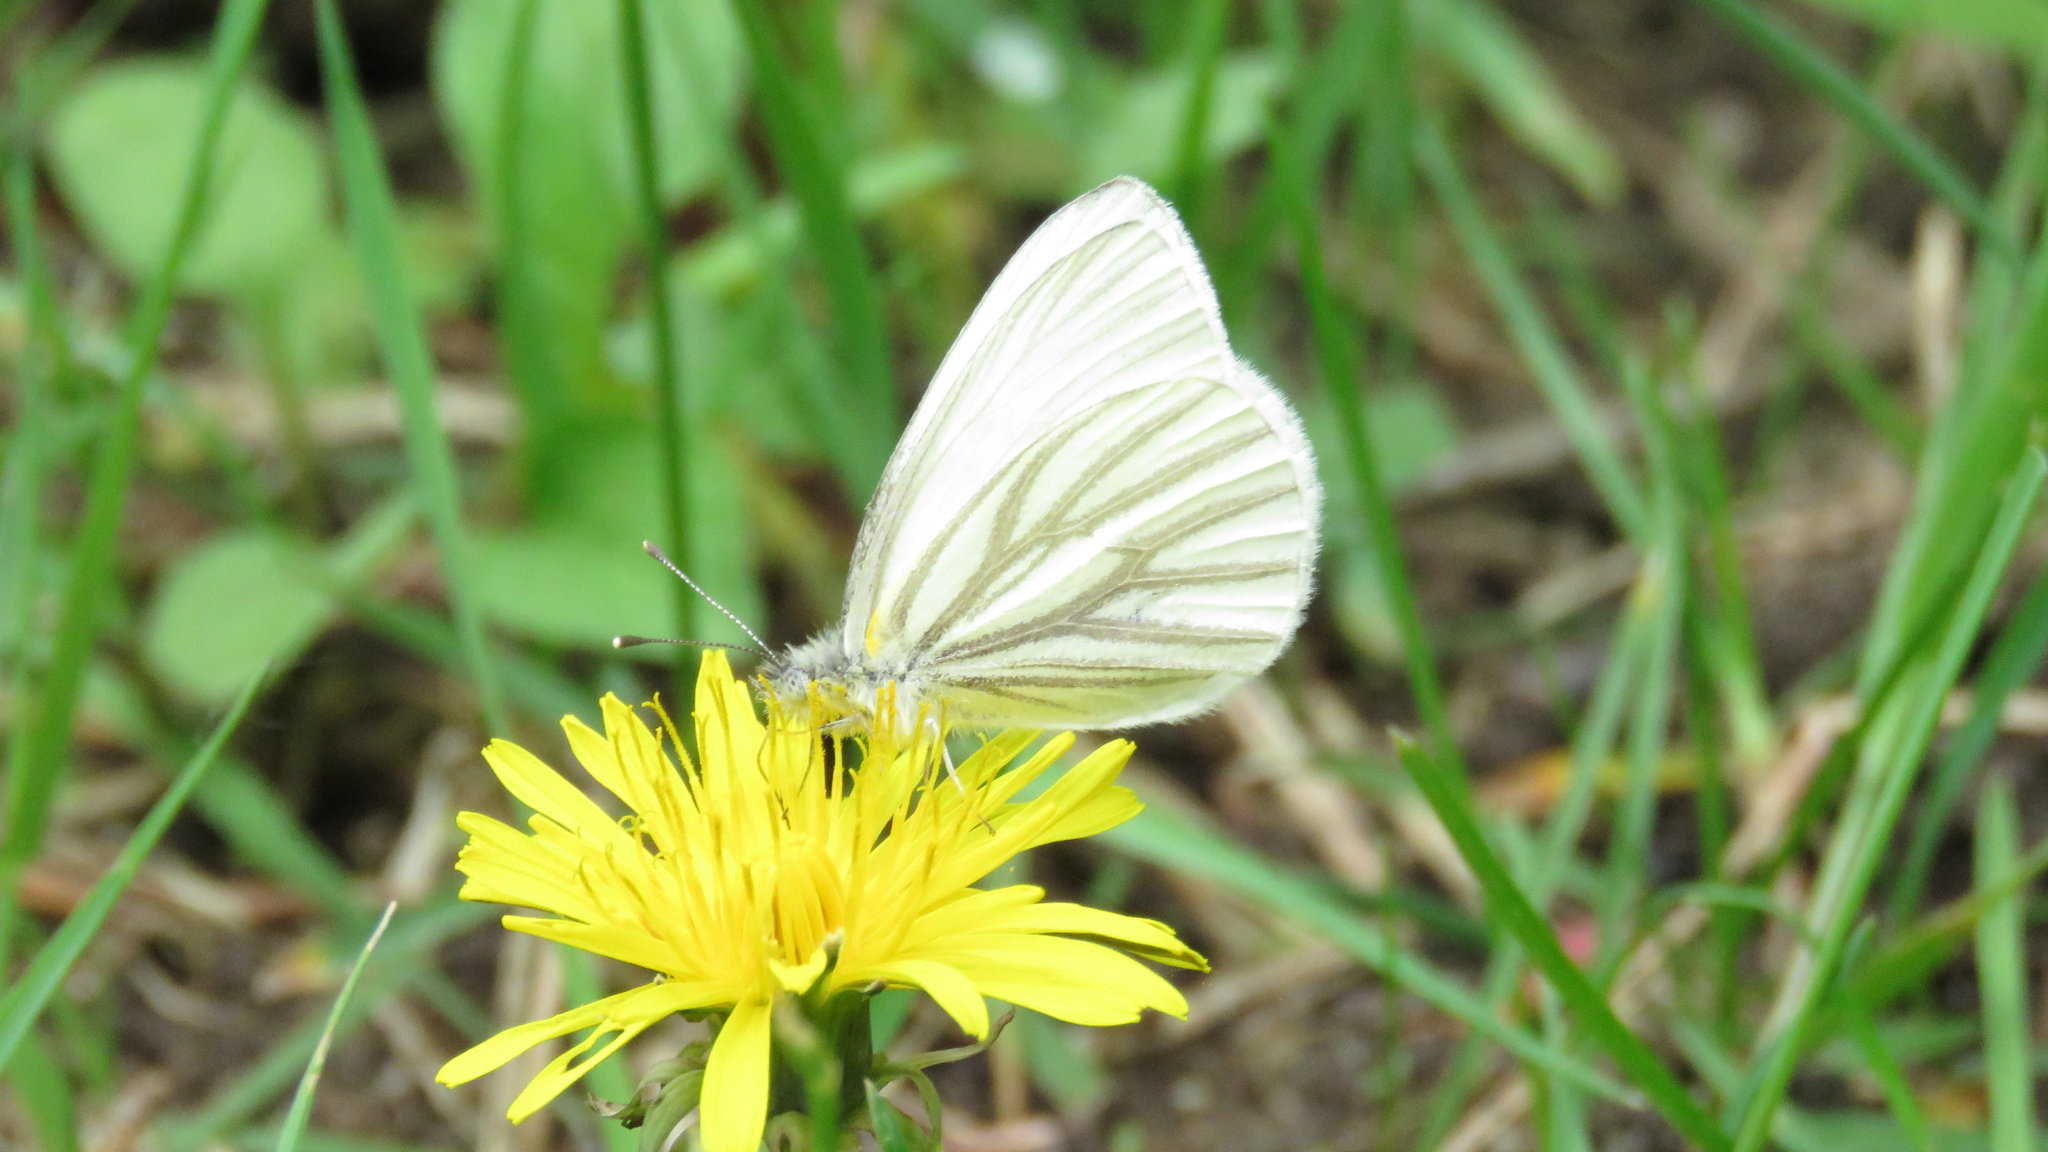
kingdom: Animalia
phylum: Arthropoda
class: Insecta
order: Lepidoptera
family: Pieridae
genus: Pieris
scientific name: Pieris oleracea
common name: Mustard white
